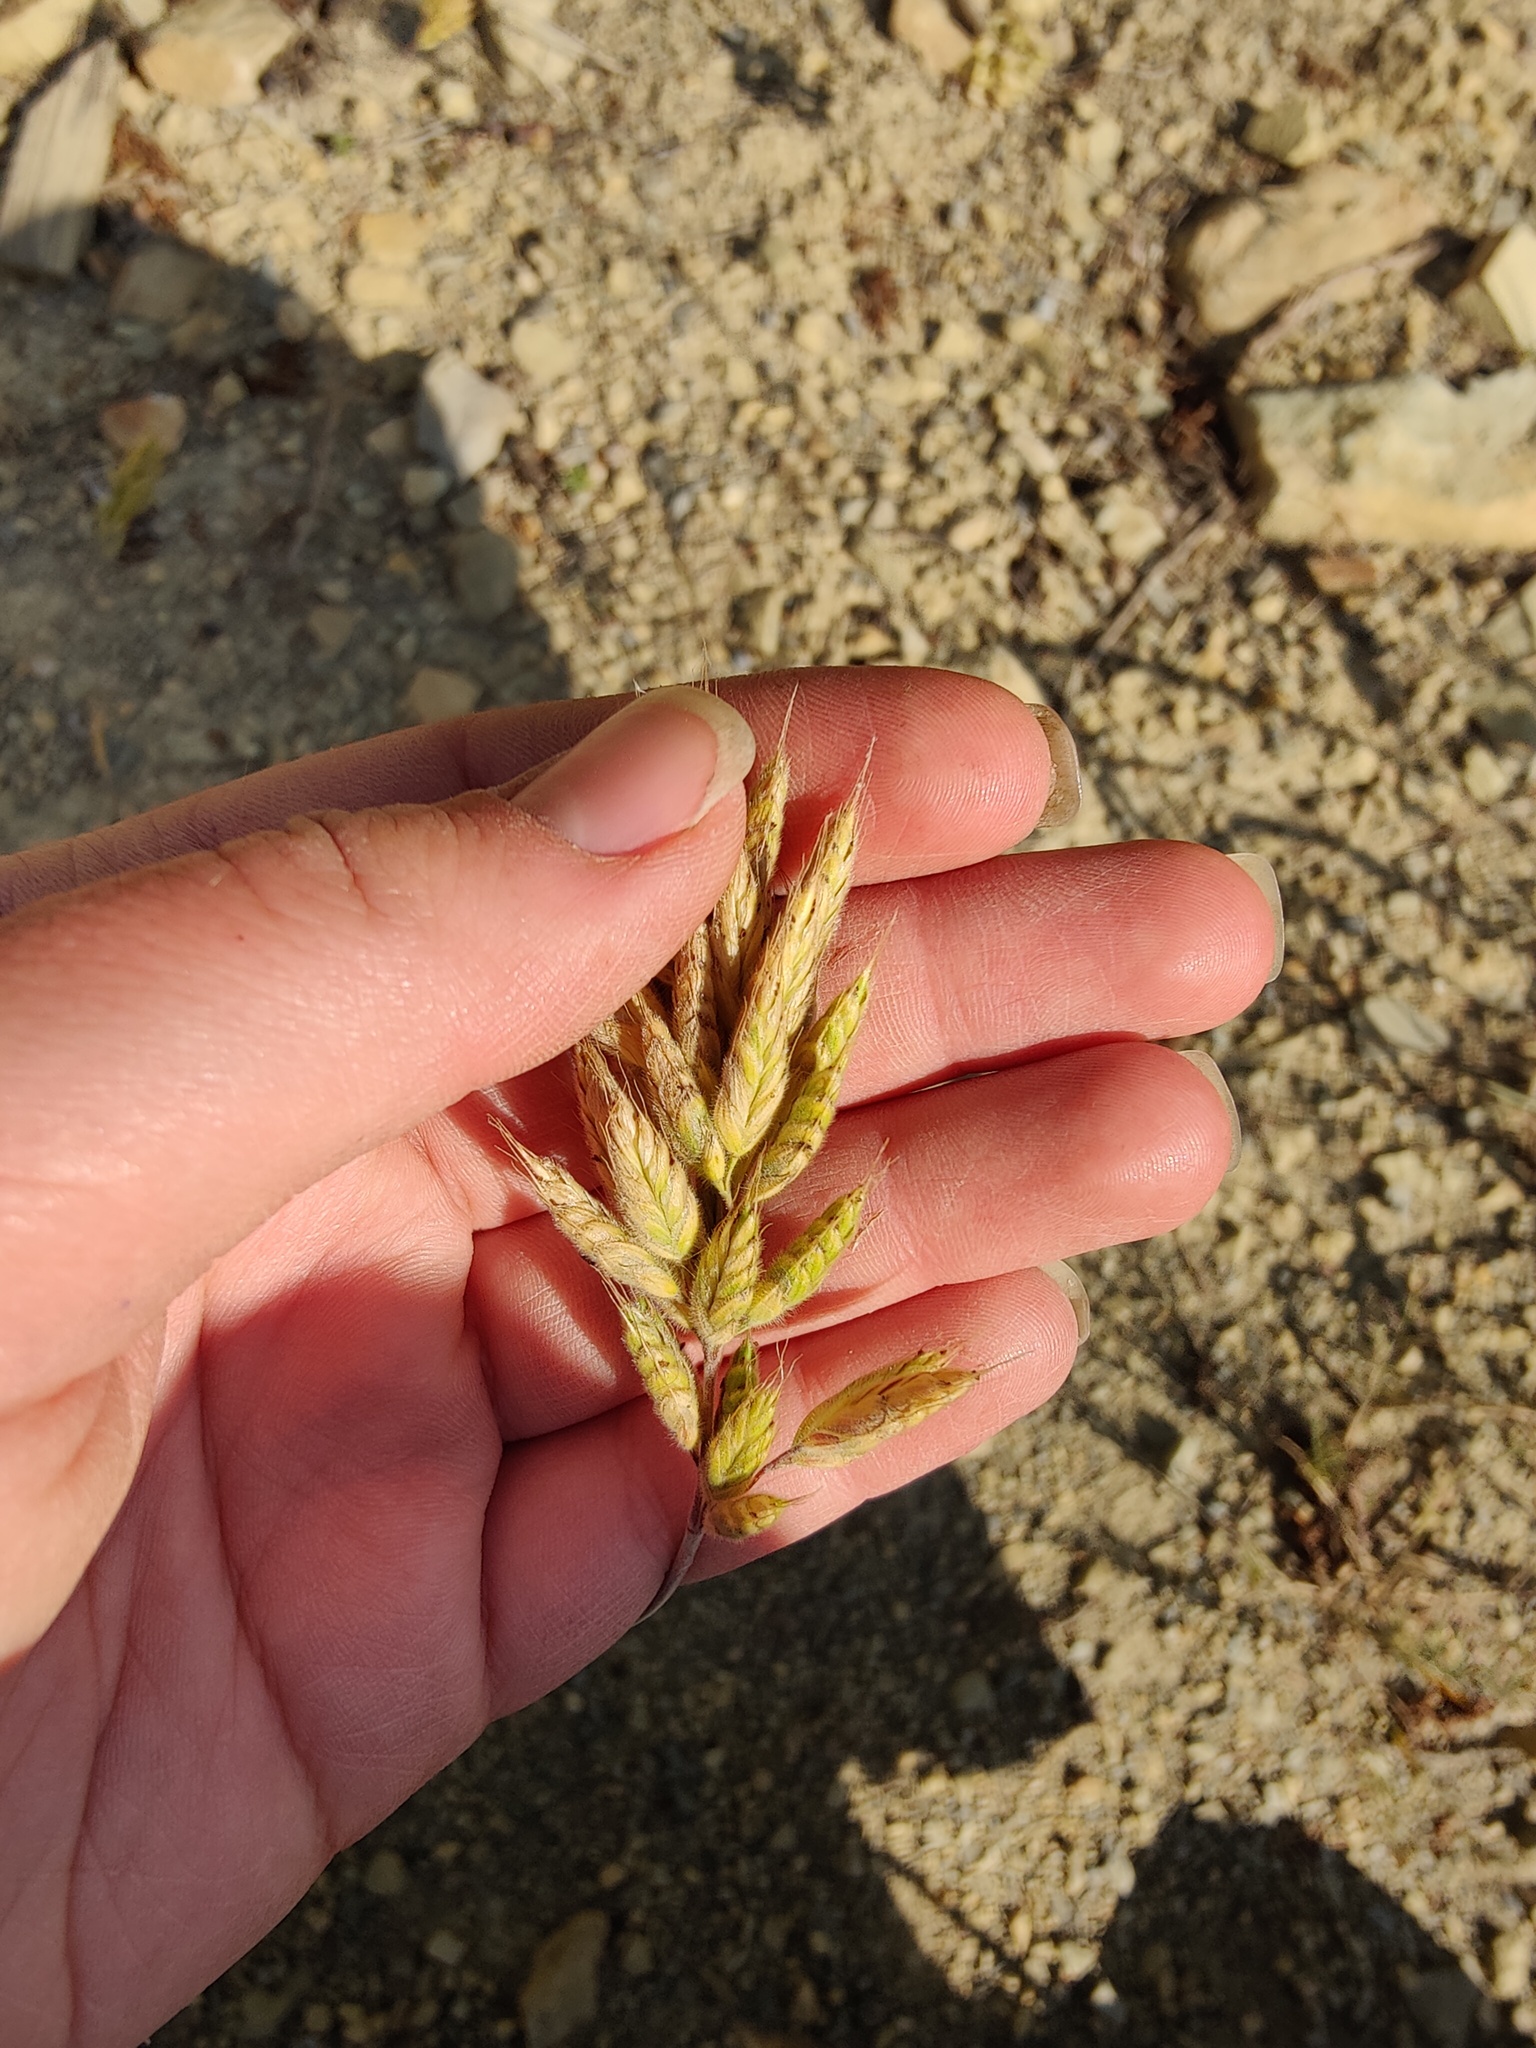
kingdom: Plantae
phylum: Tracheophyta
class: Liliopsida
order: Poales
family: Poaceae
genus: Bromus
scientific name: Bromus hordeaceus
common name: Soft brome
